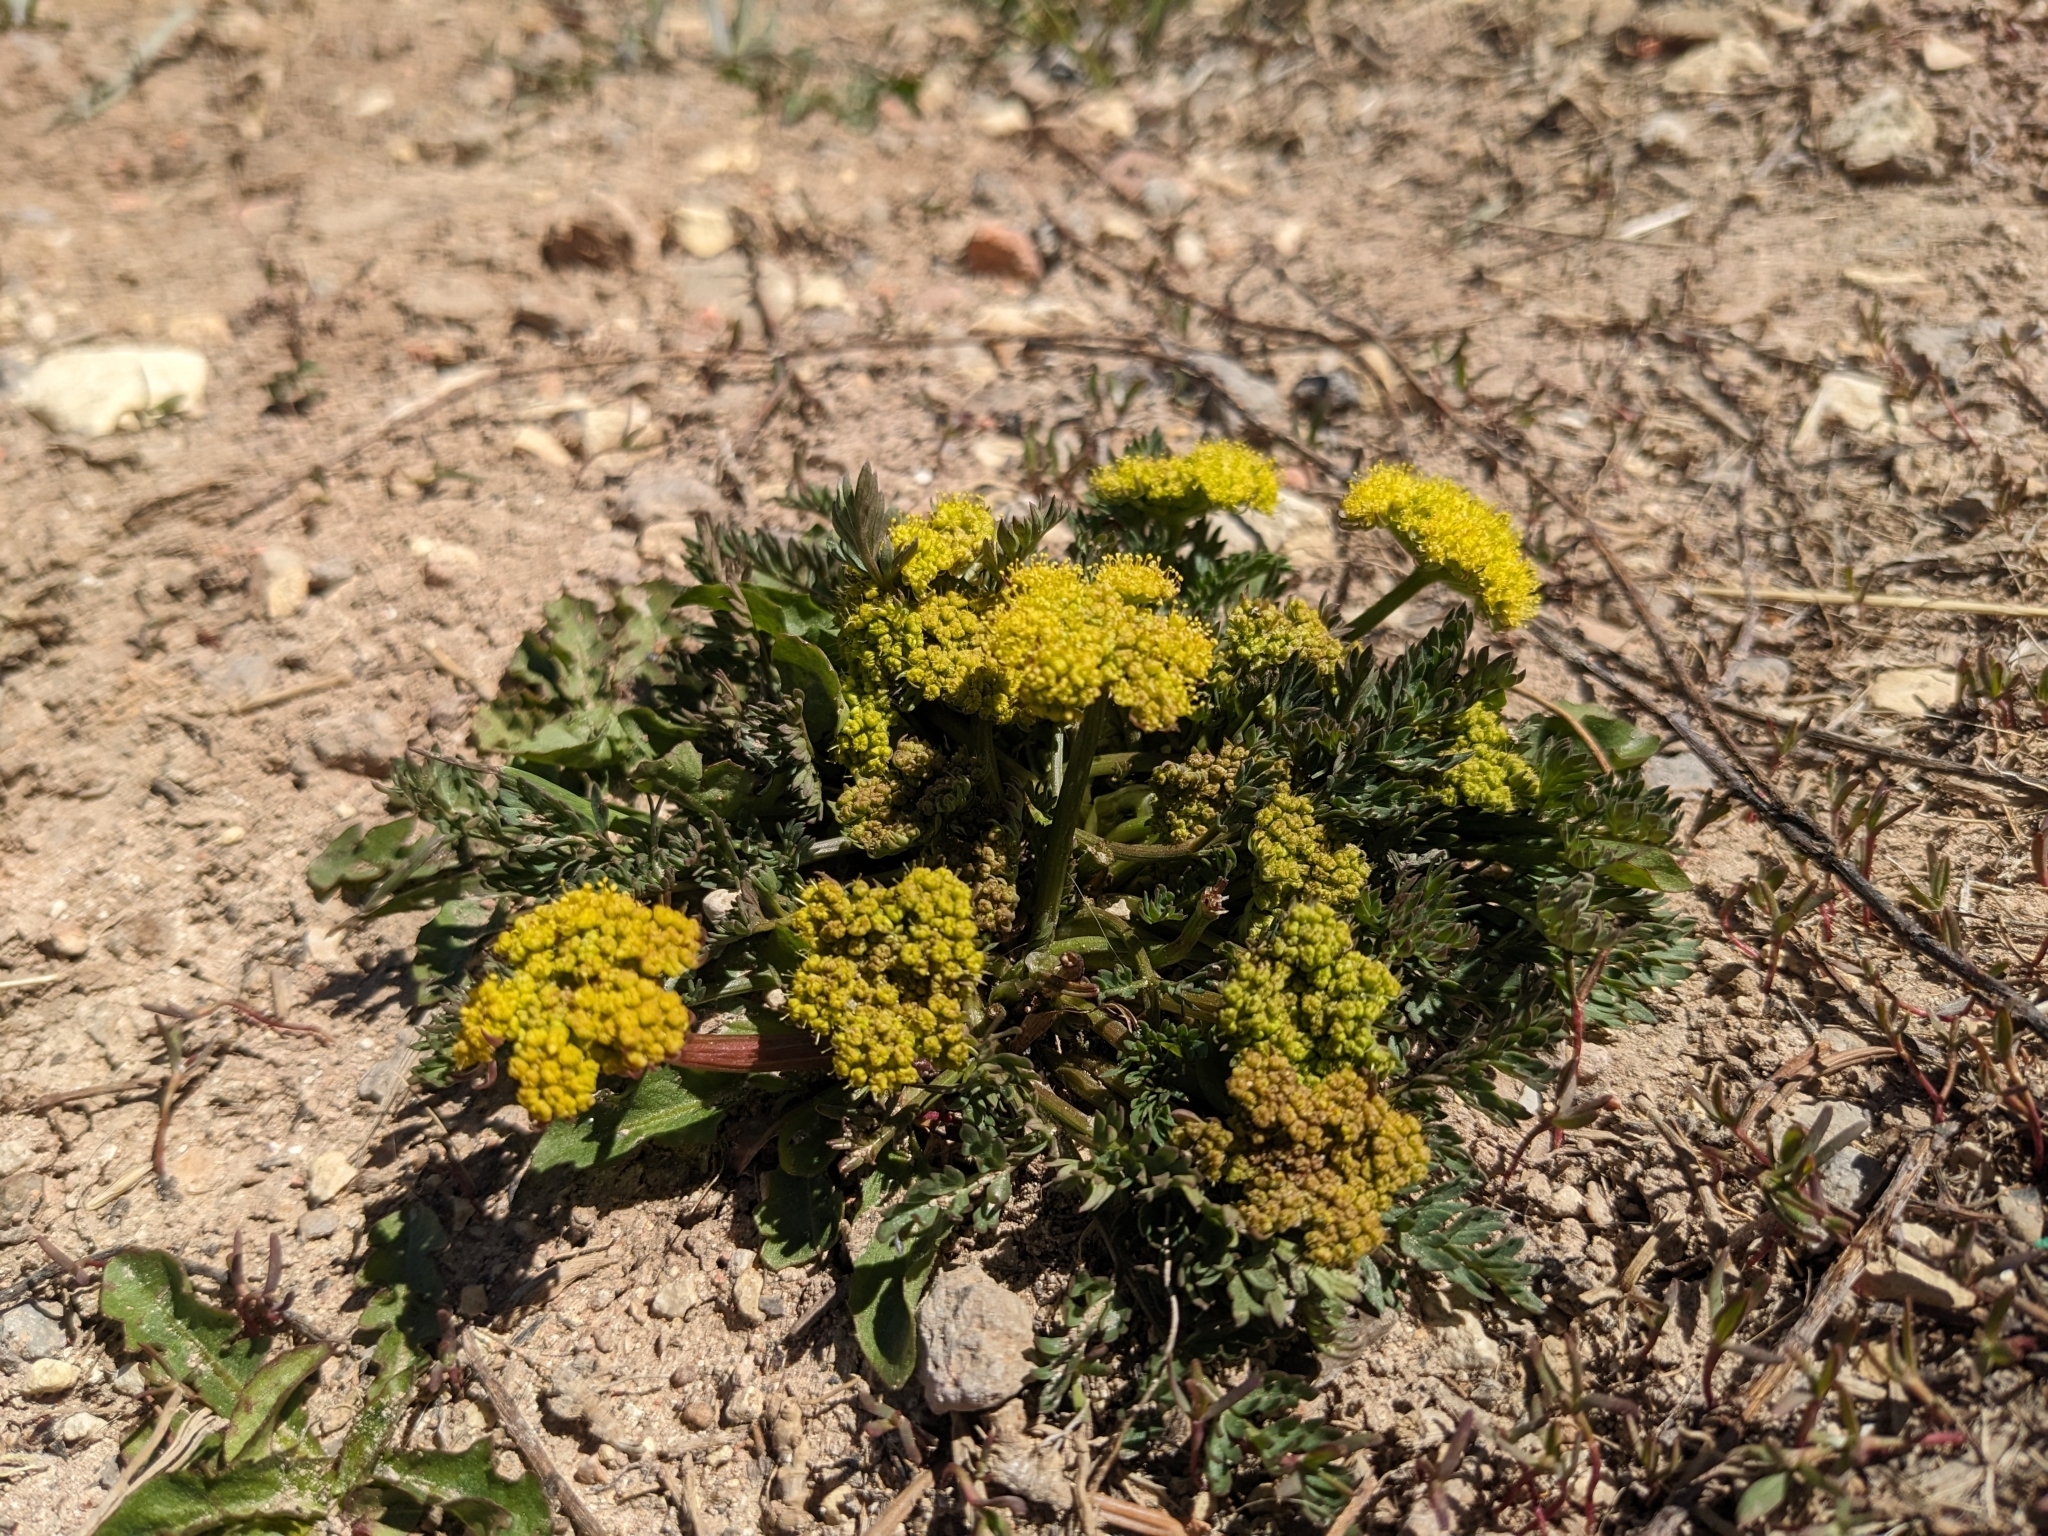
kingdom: Plantae
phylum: Tracheophyta
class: Magnoliopsida
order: Apiales
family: Apiaceae
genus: Lomatium
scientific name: Lomatium minimum
